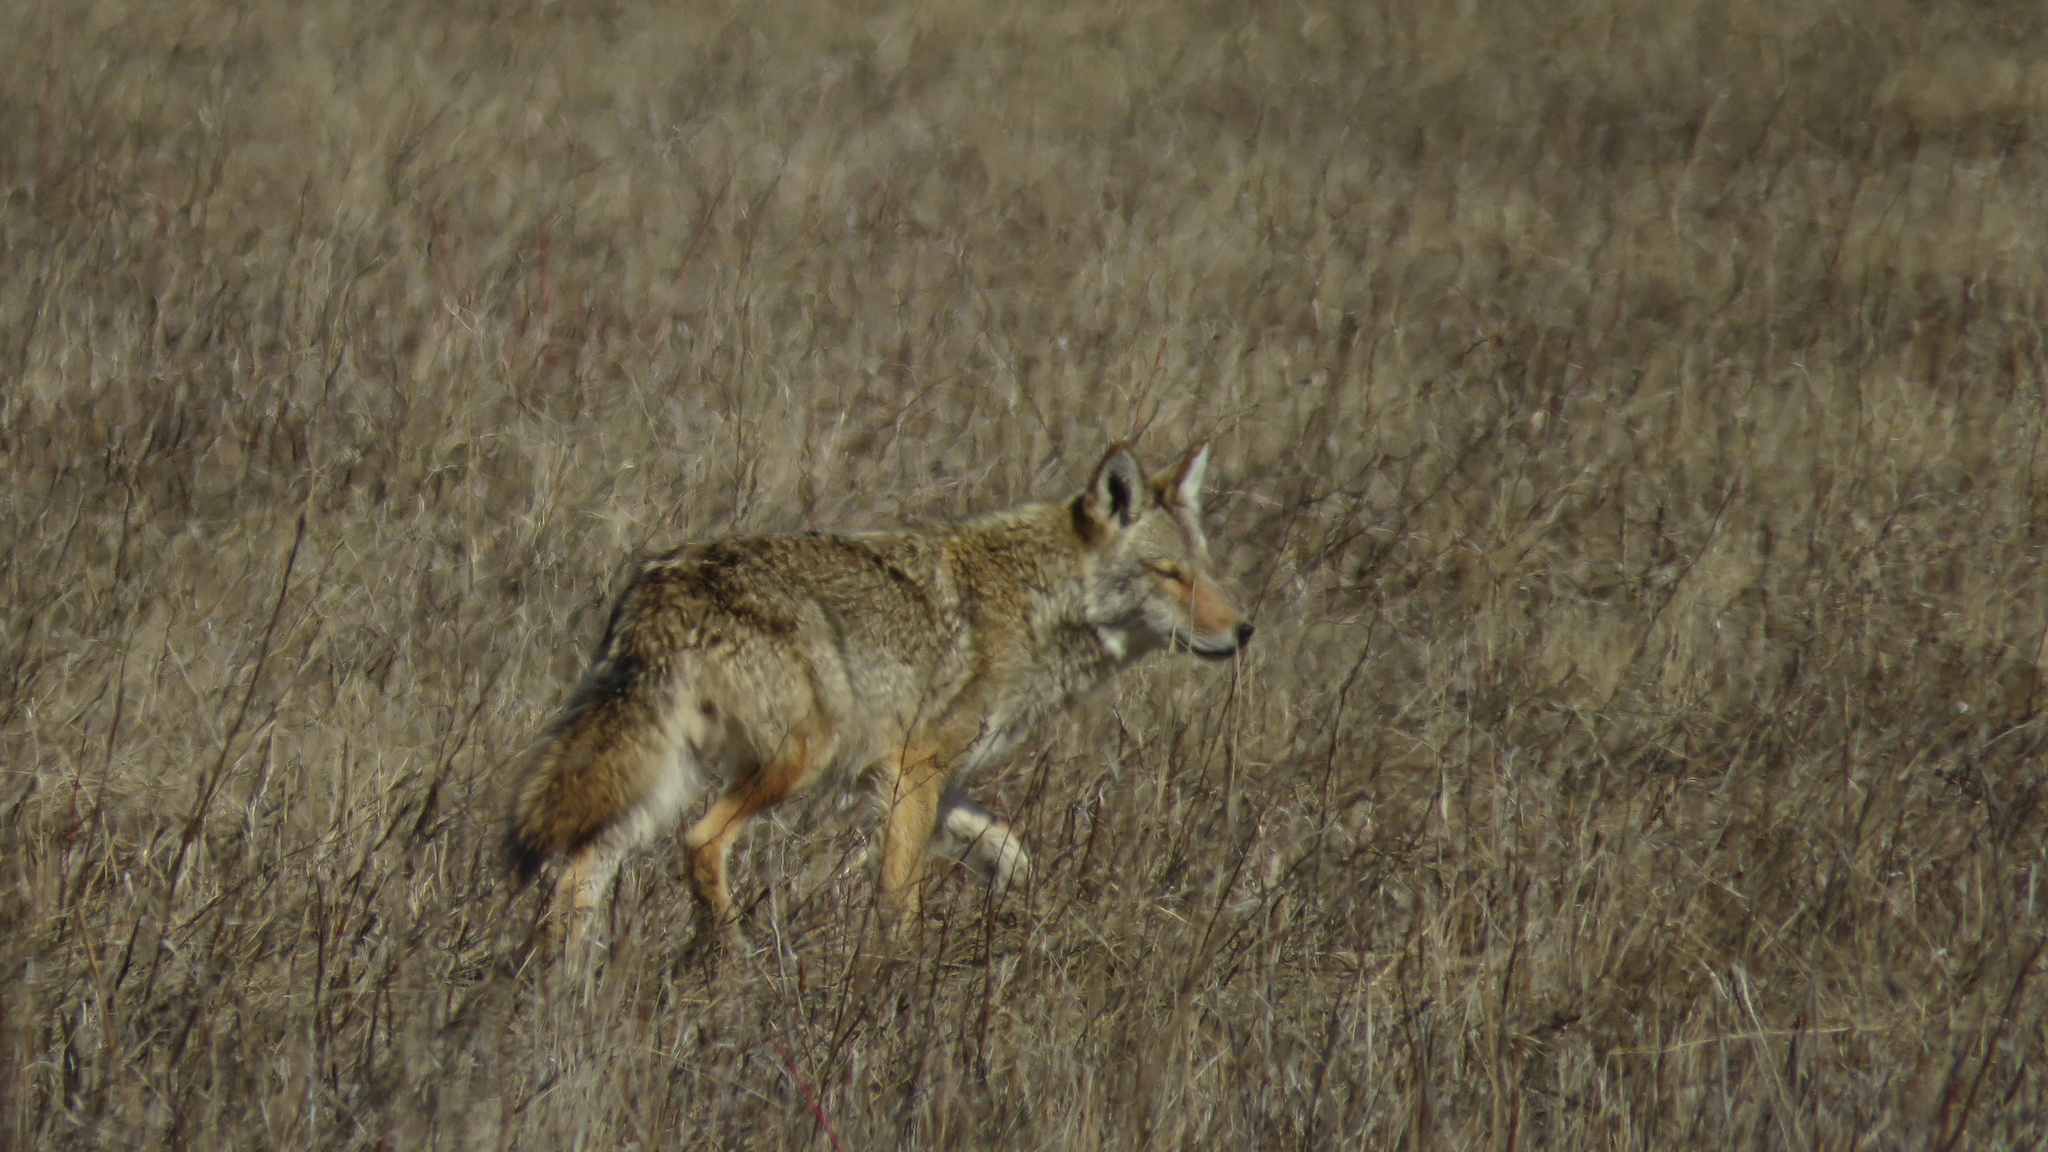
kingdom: Animalia
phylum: Chordata
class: Mammalia
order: Carnivora
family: Canidae
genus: Canis
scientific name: Canis latrans
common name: Coyote
